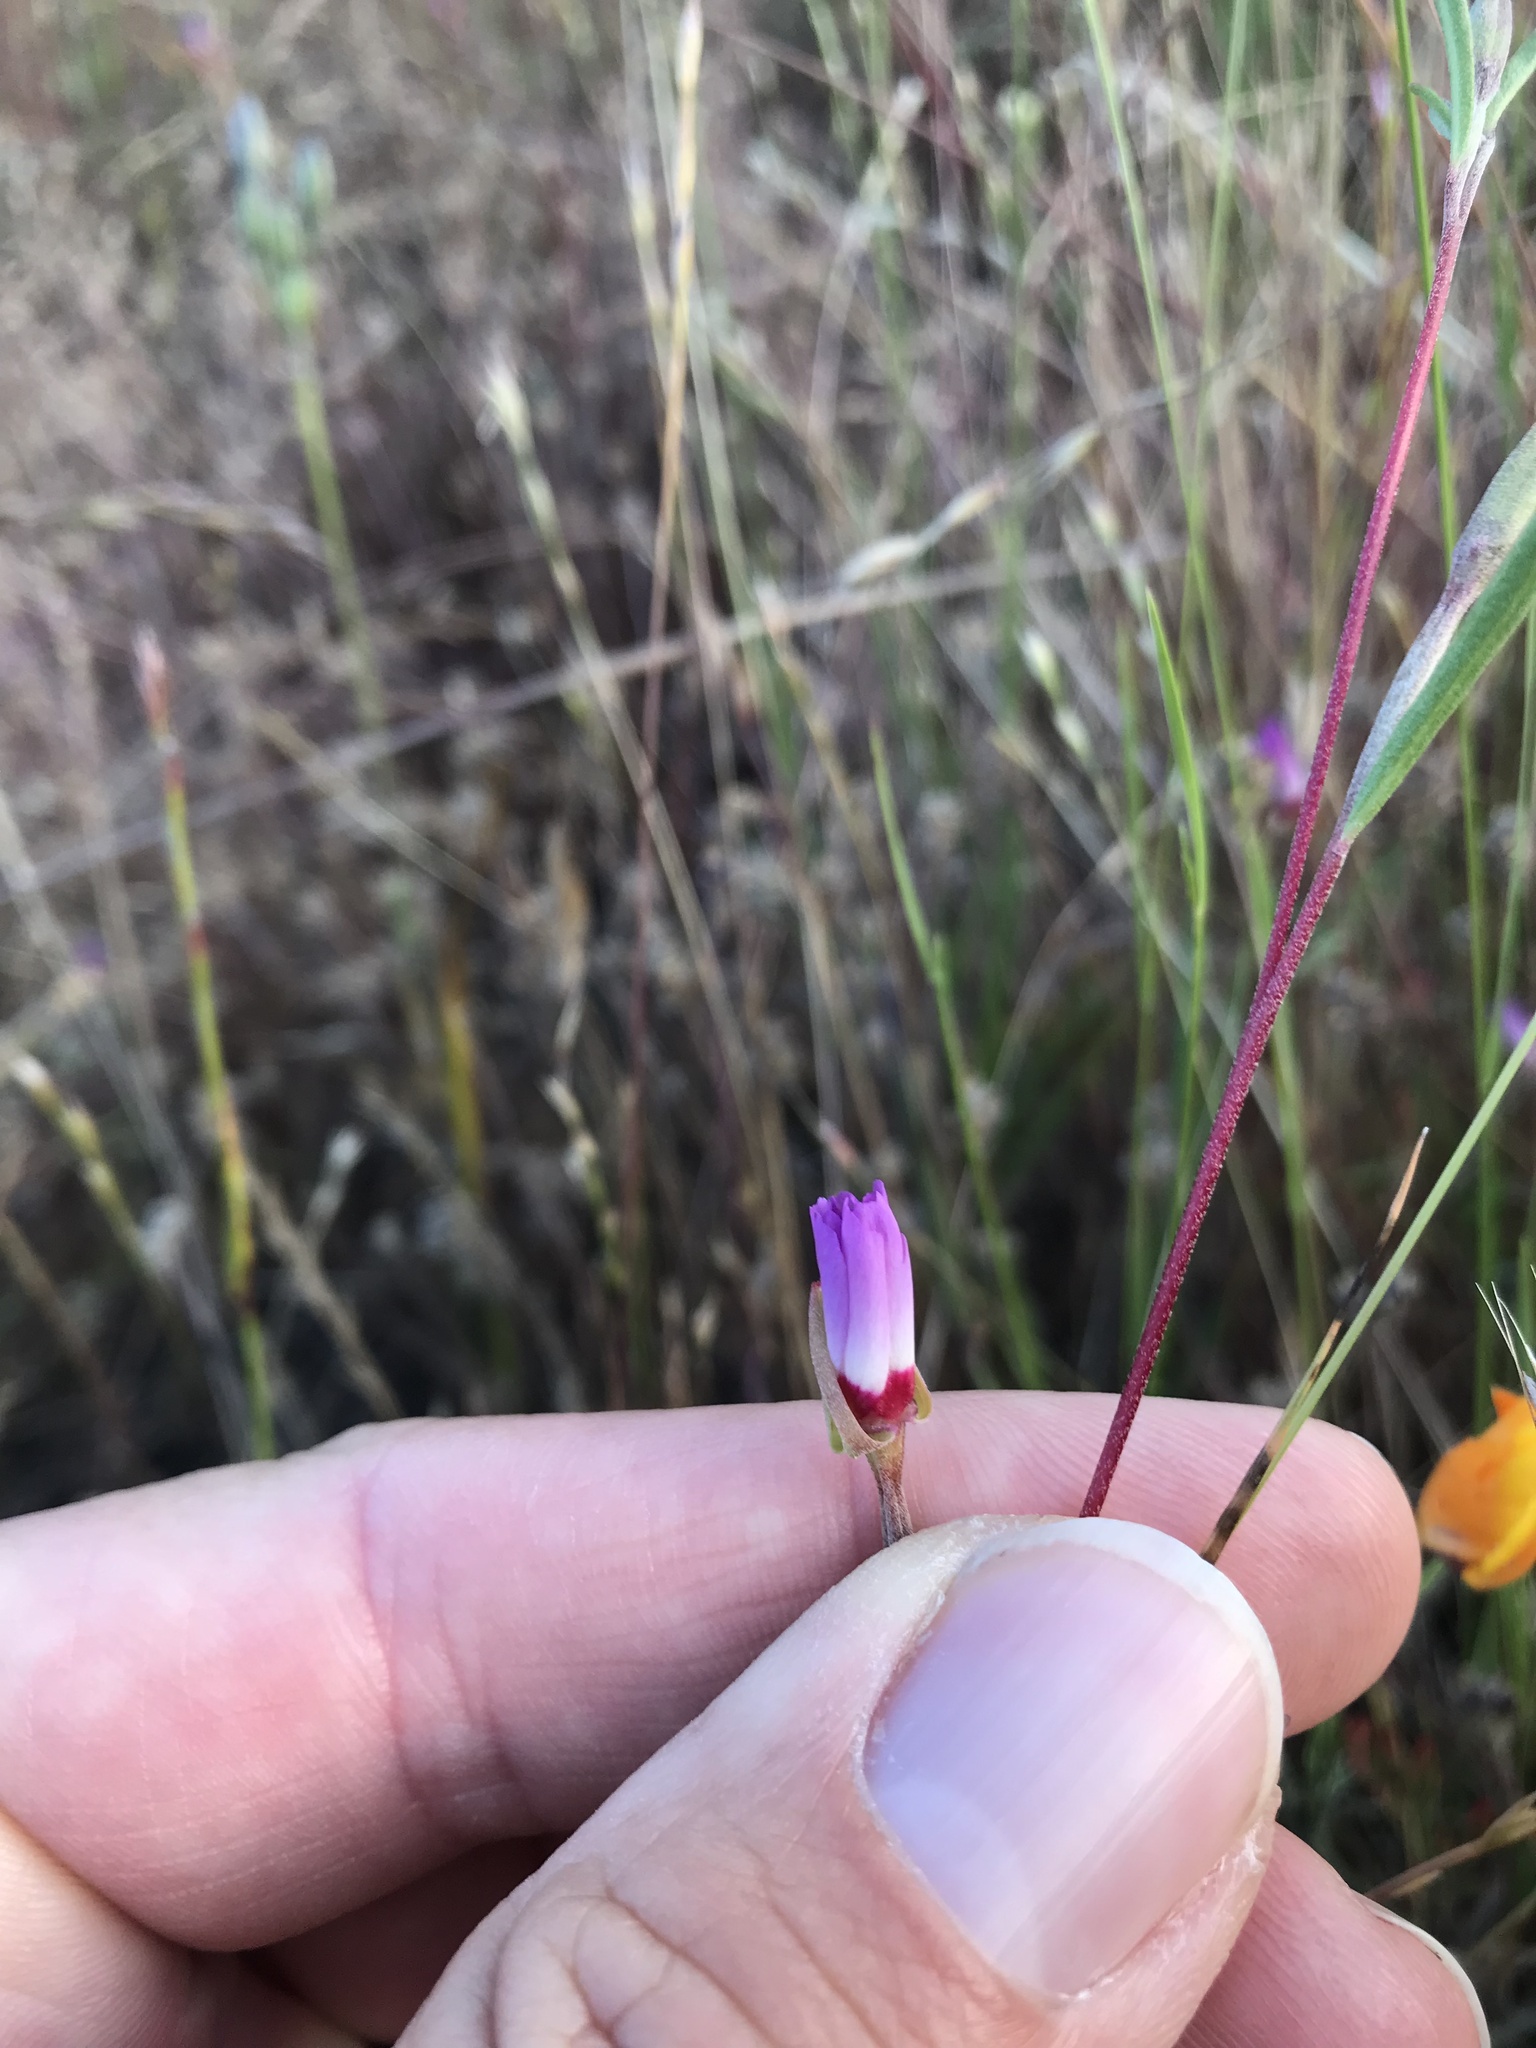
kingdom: Plantae
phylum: Tracheophyta
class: Magnoliopsida
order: Myrtales
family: Onagraceae
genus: Clarkia
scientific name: Clarkia franciscana
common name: Presidio clarkia
